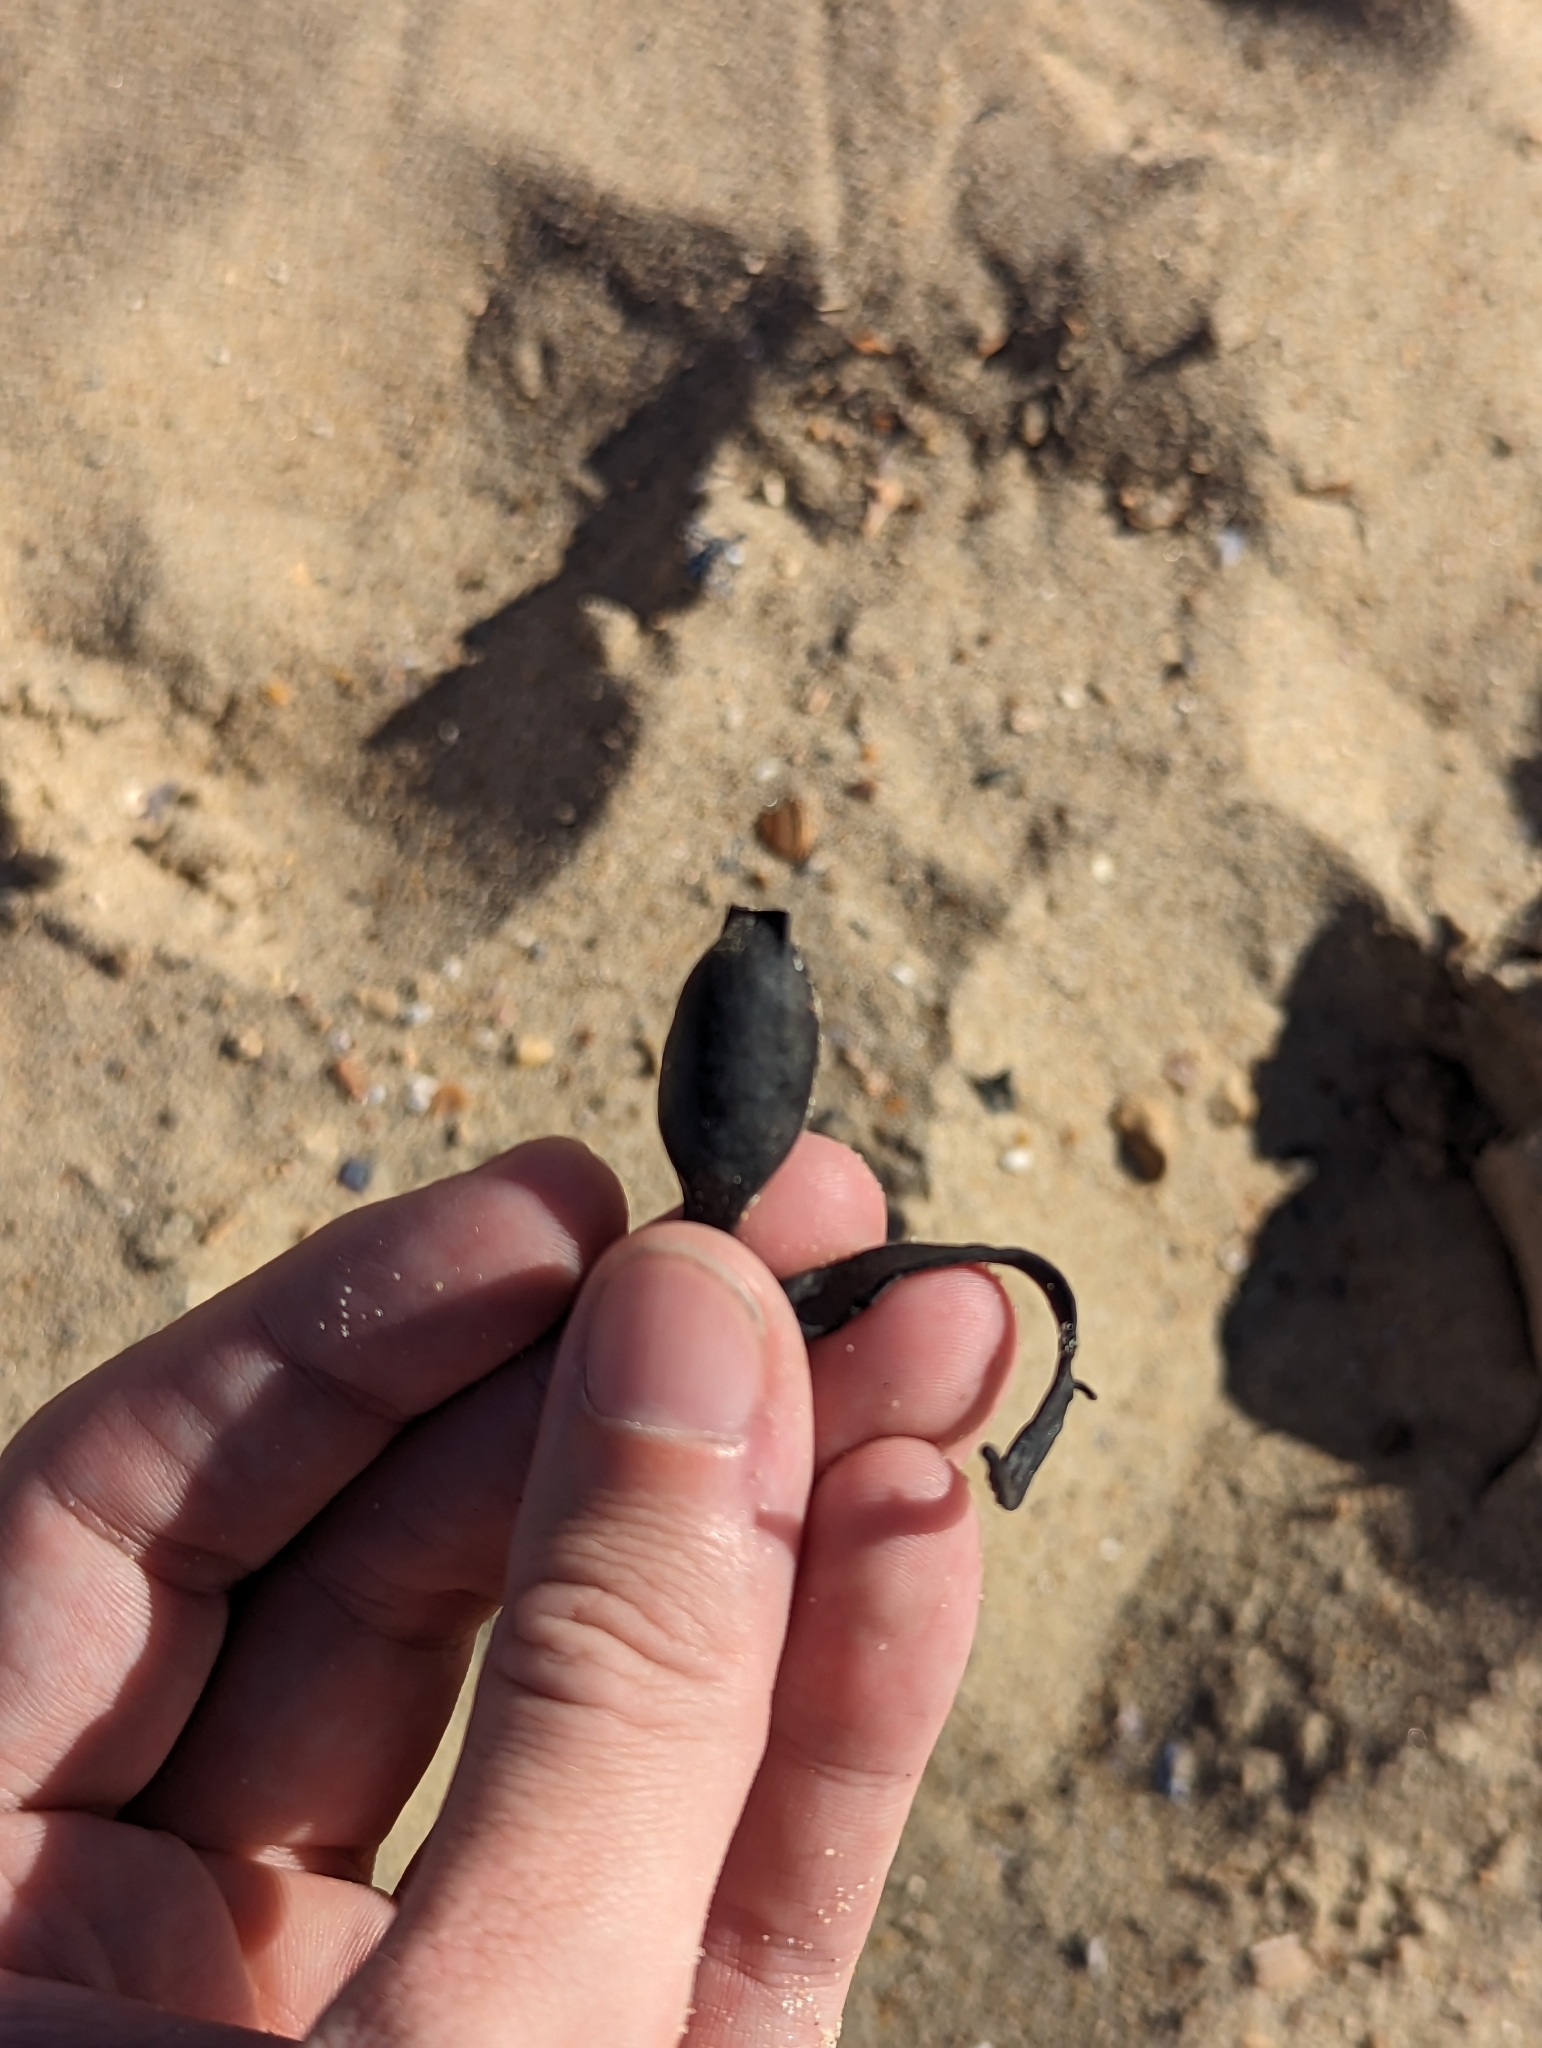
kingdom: Chromista
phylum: Ochrophyta
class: Phaeophyceae
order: Fucales
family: Fucaceae
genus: Ascophyllum
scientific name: Ascophyllum nodosum
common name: Knotted wrack
